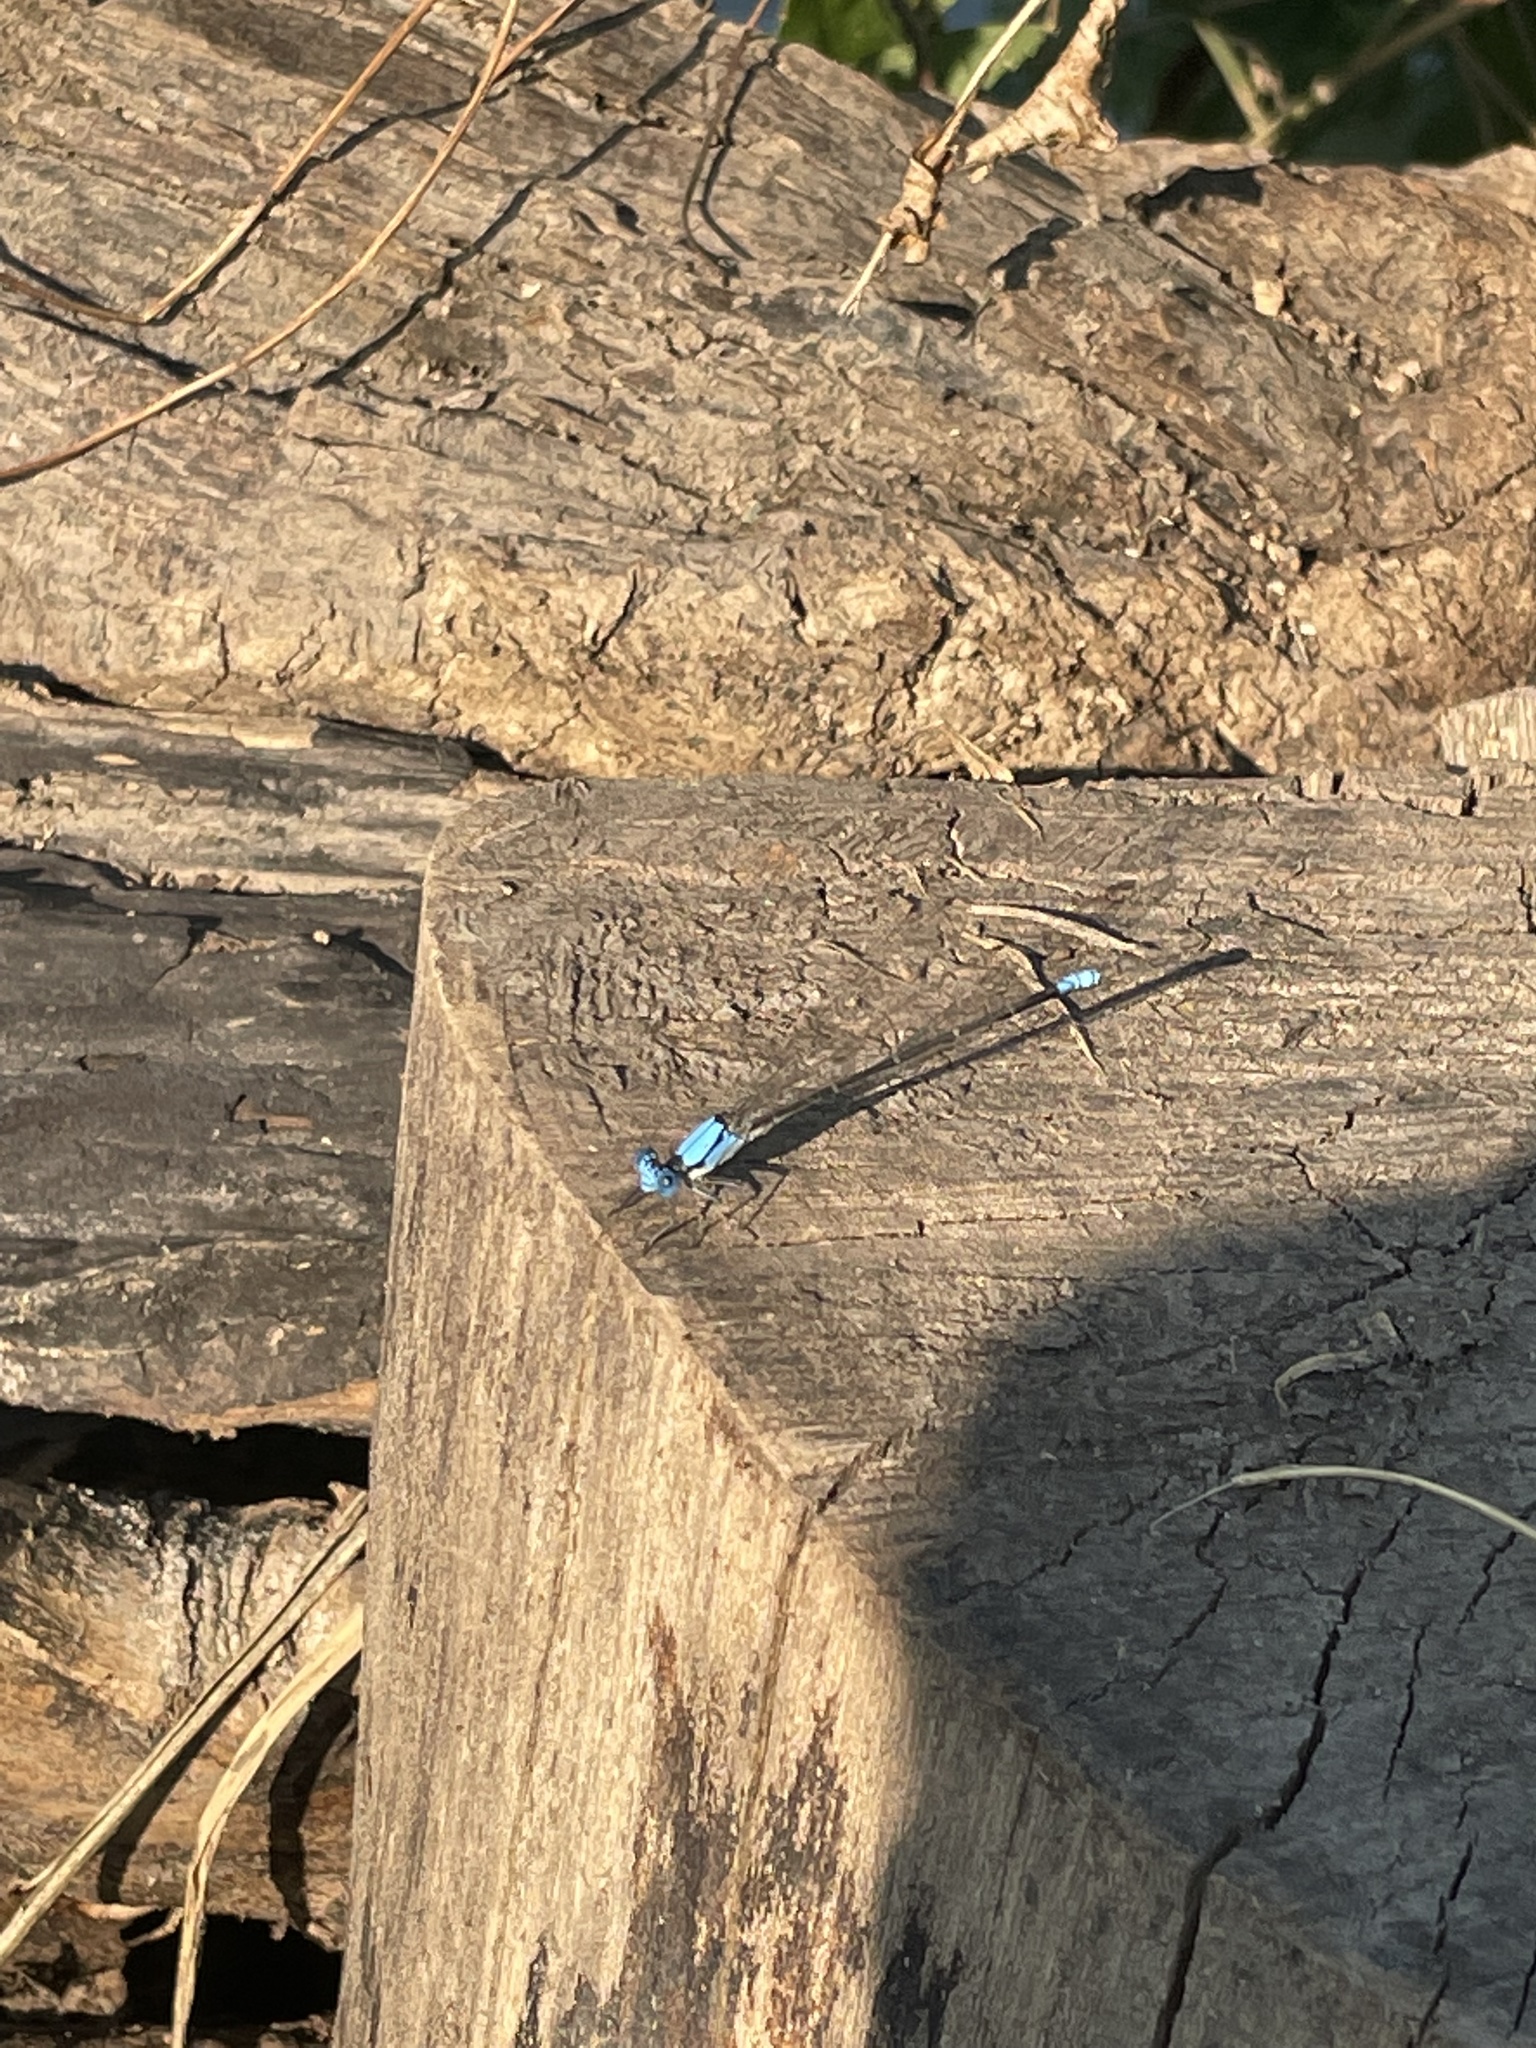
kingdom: Animalia
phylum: Arthropoda
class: Insecta
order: Odonata
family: Coenagrionidae
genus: Argia
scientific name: Argia apicalis
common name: Blue-fronted dancer
